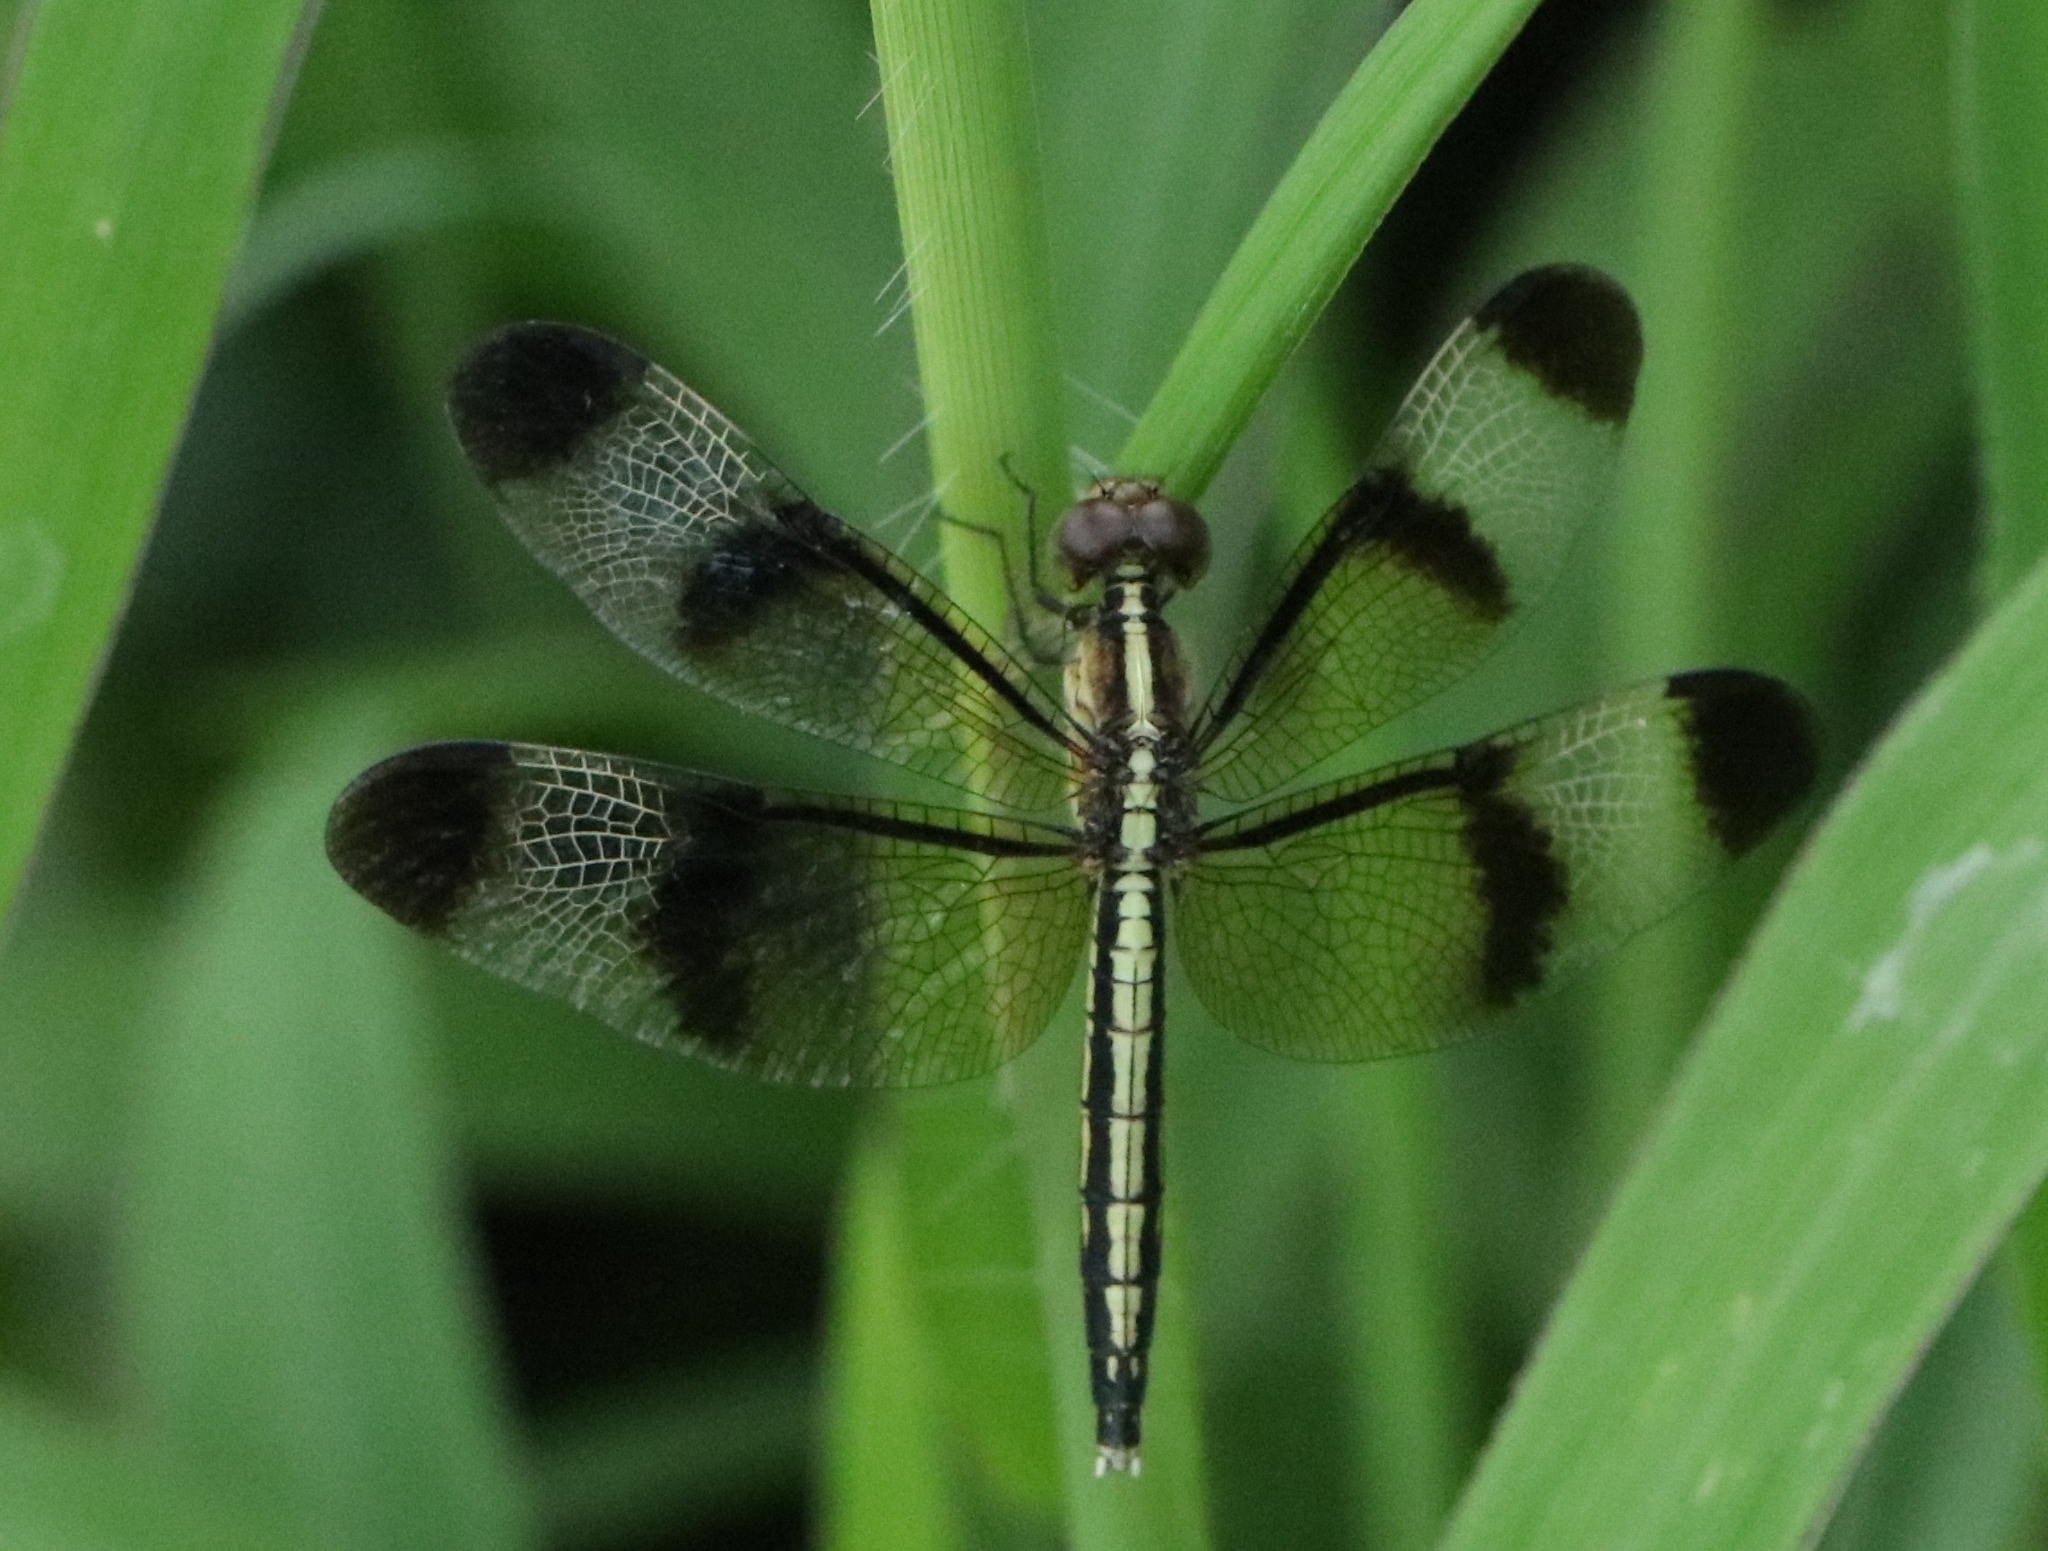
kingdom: Animalia
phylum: Arthropoda
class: Insecta
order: Odonata
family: Libellulidae
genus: Neurothemis
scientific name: Neurothemis tullia
